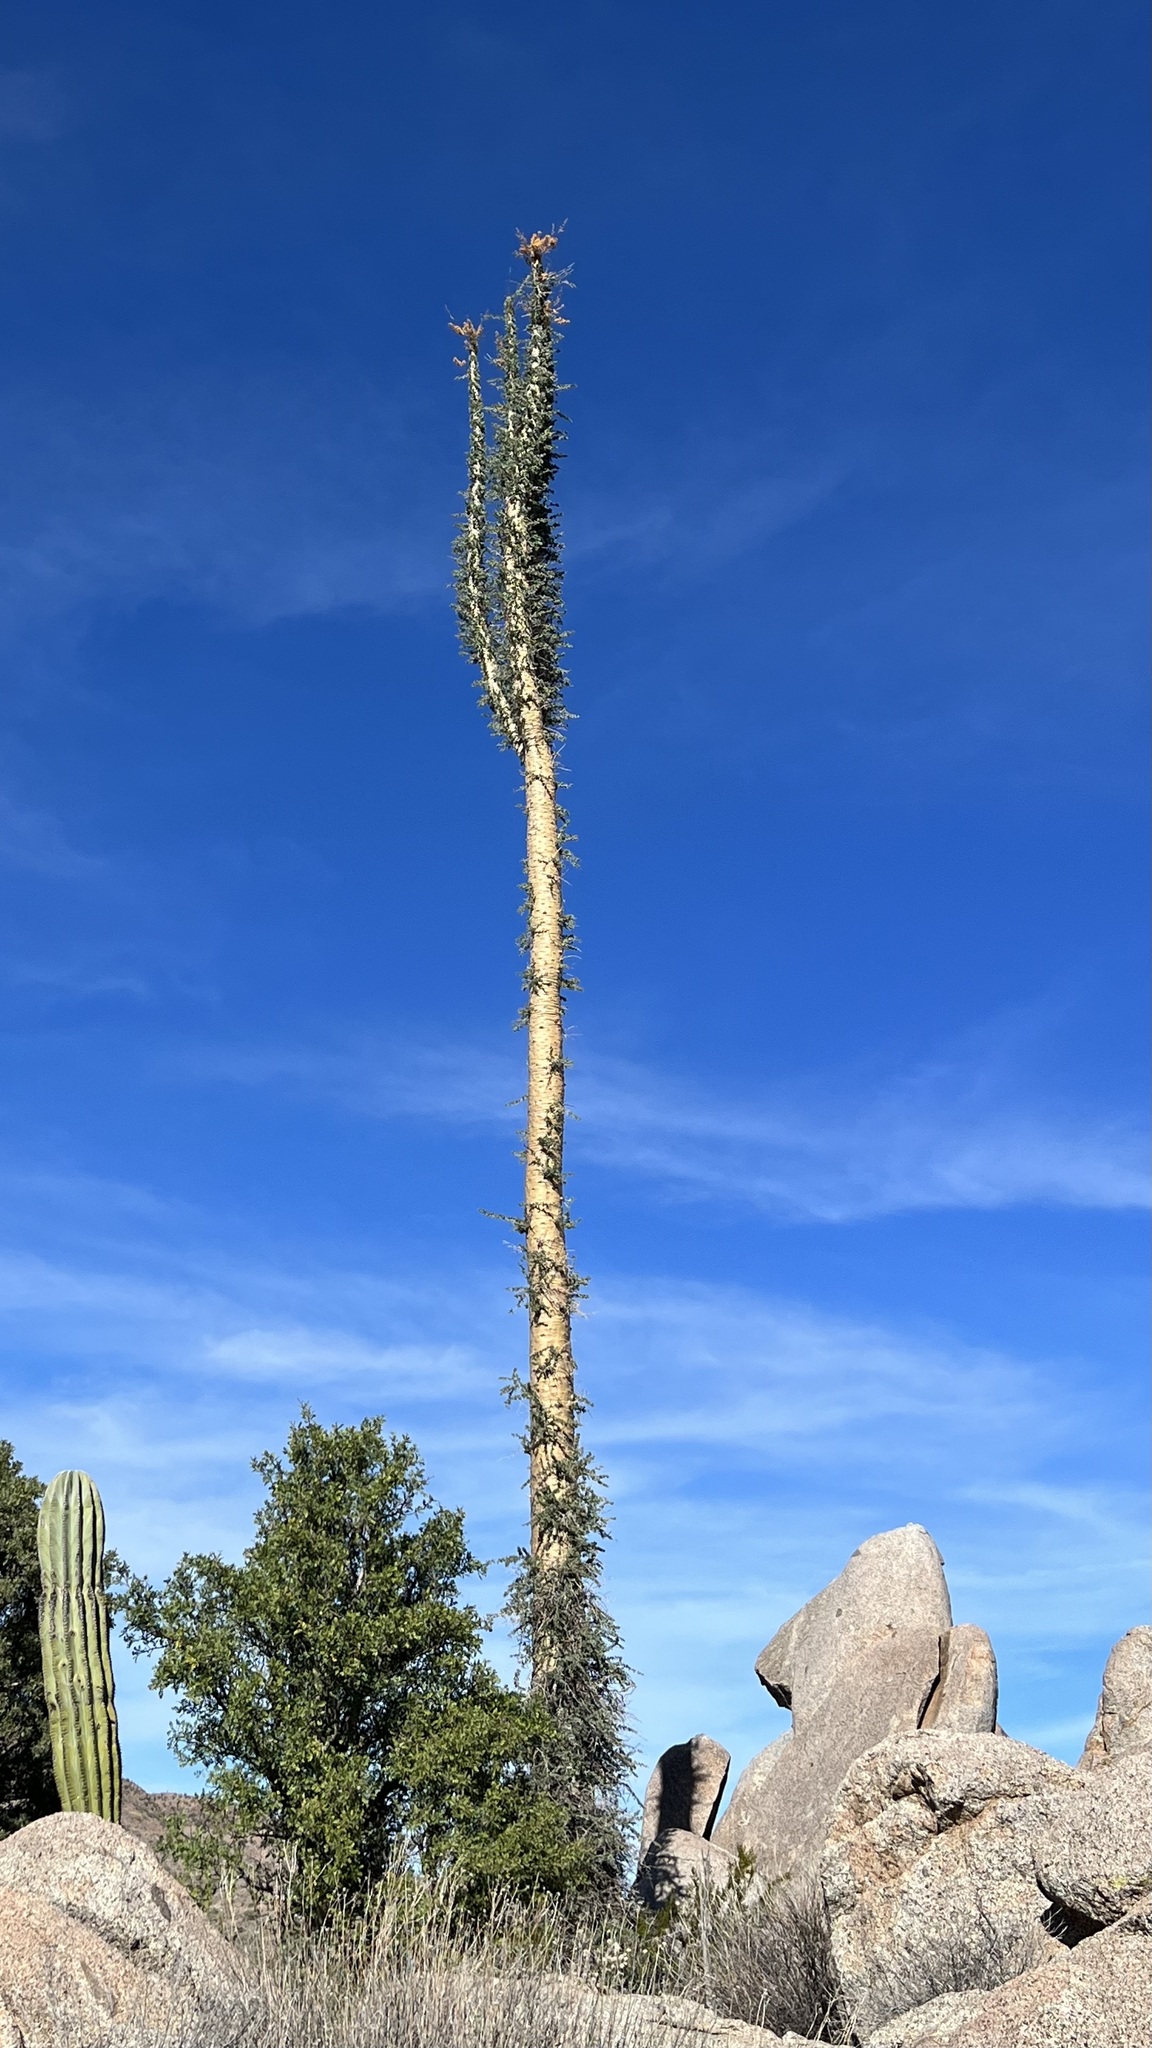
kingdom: Plantae
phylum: Tracheophyta
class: Magnoliopsida
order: Ericales
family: Fouquieriaceae
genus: Fouquieria
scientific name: Fouquieria columnaris
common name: Boojumtree
